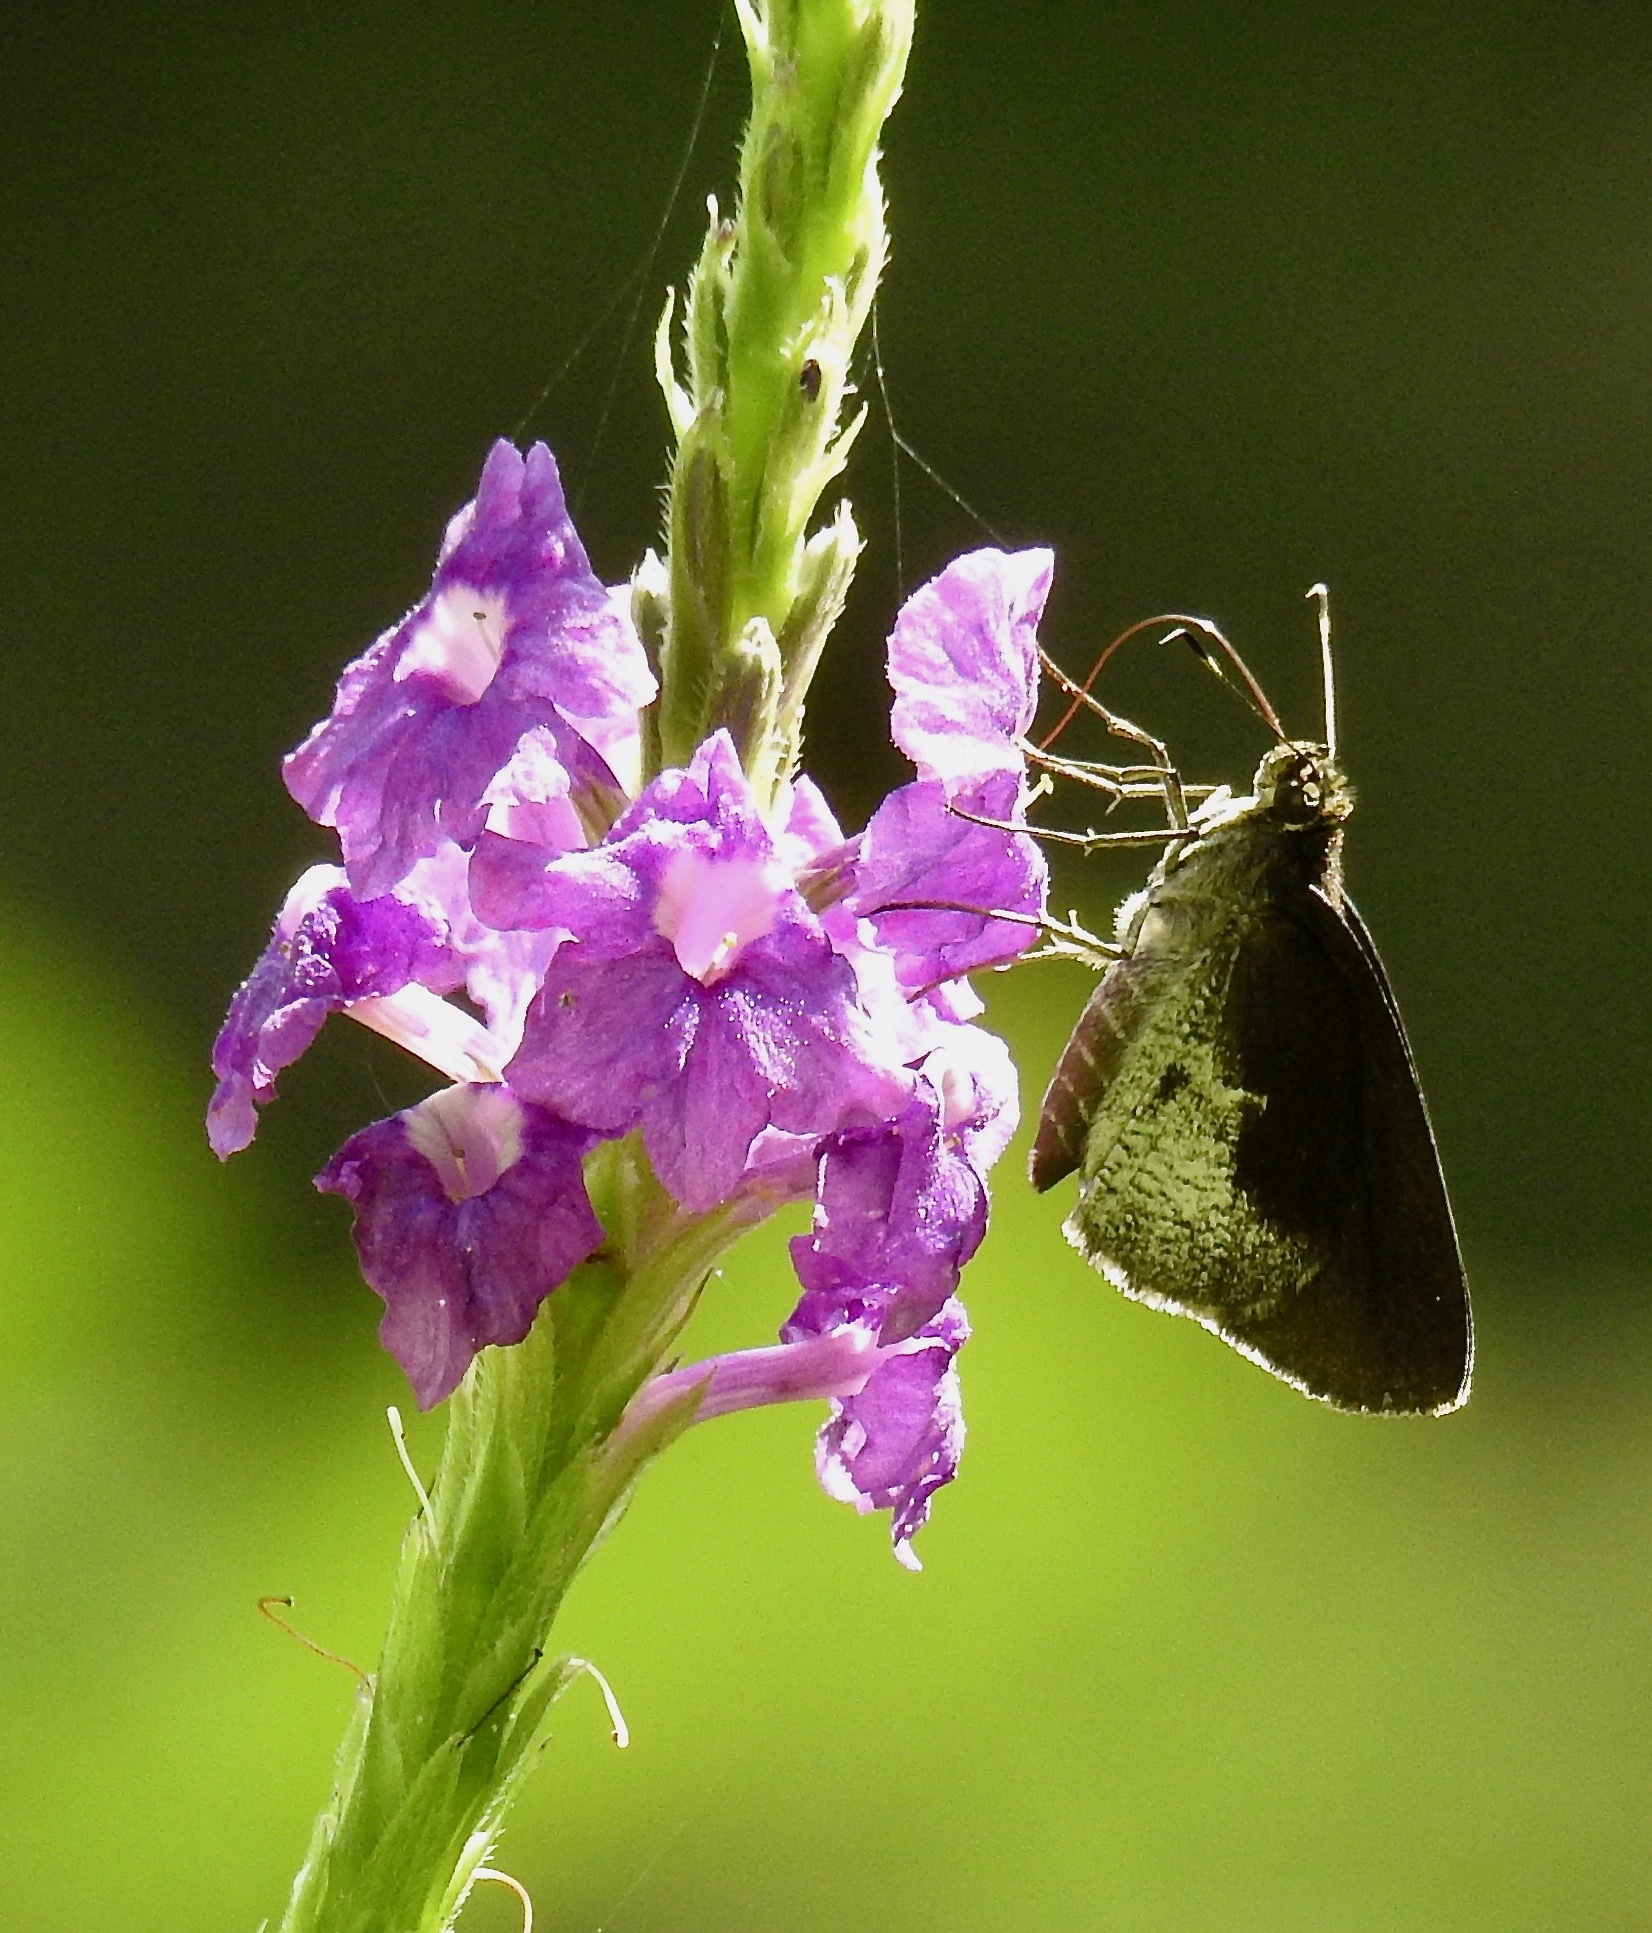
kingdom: Animalia
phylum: Arthropoda
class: Insecta
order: Lepidoptera
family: Hesperiidae
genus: Synapte
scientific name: Synapte lutulenta
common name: Whitened faceted-skipper
